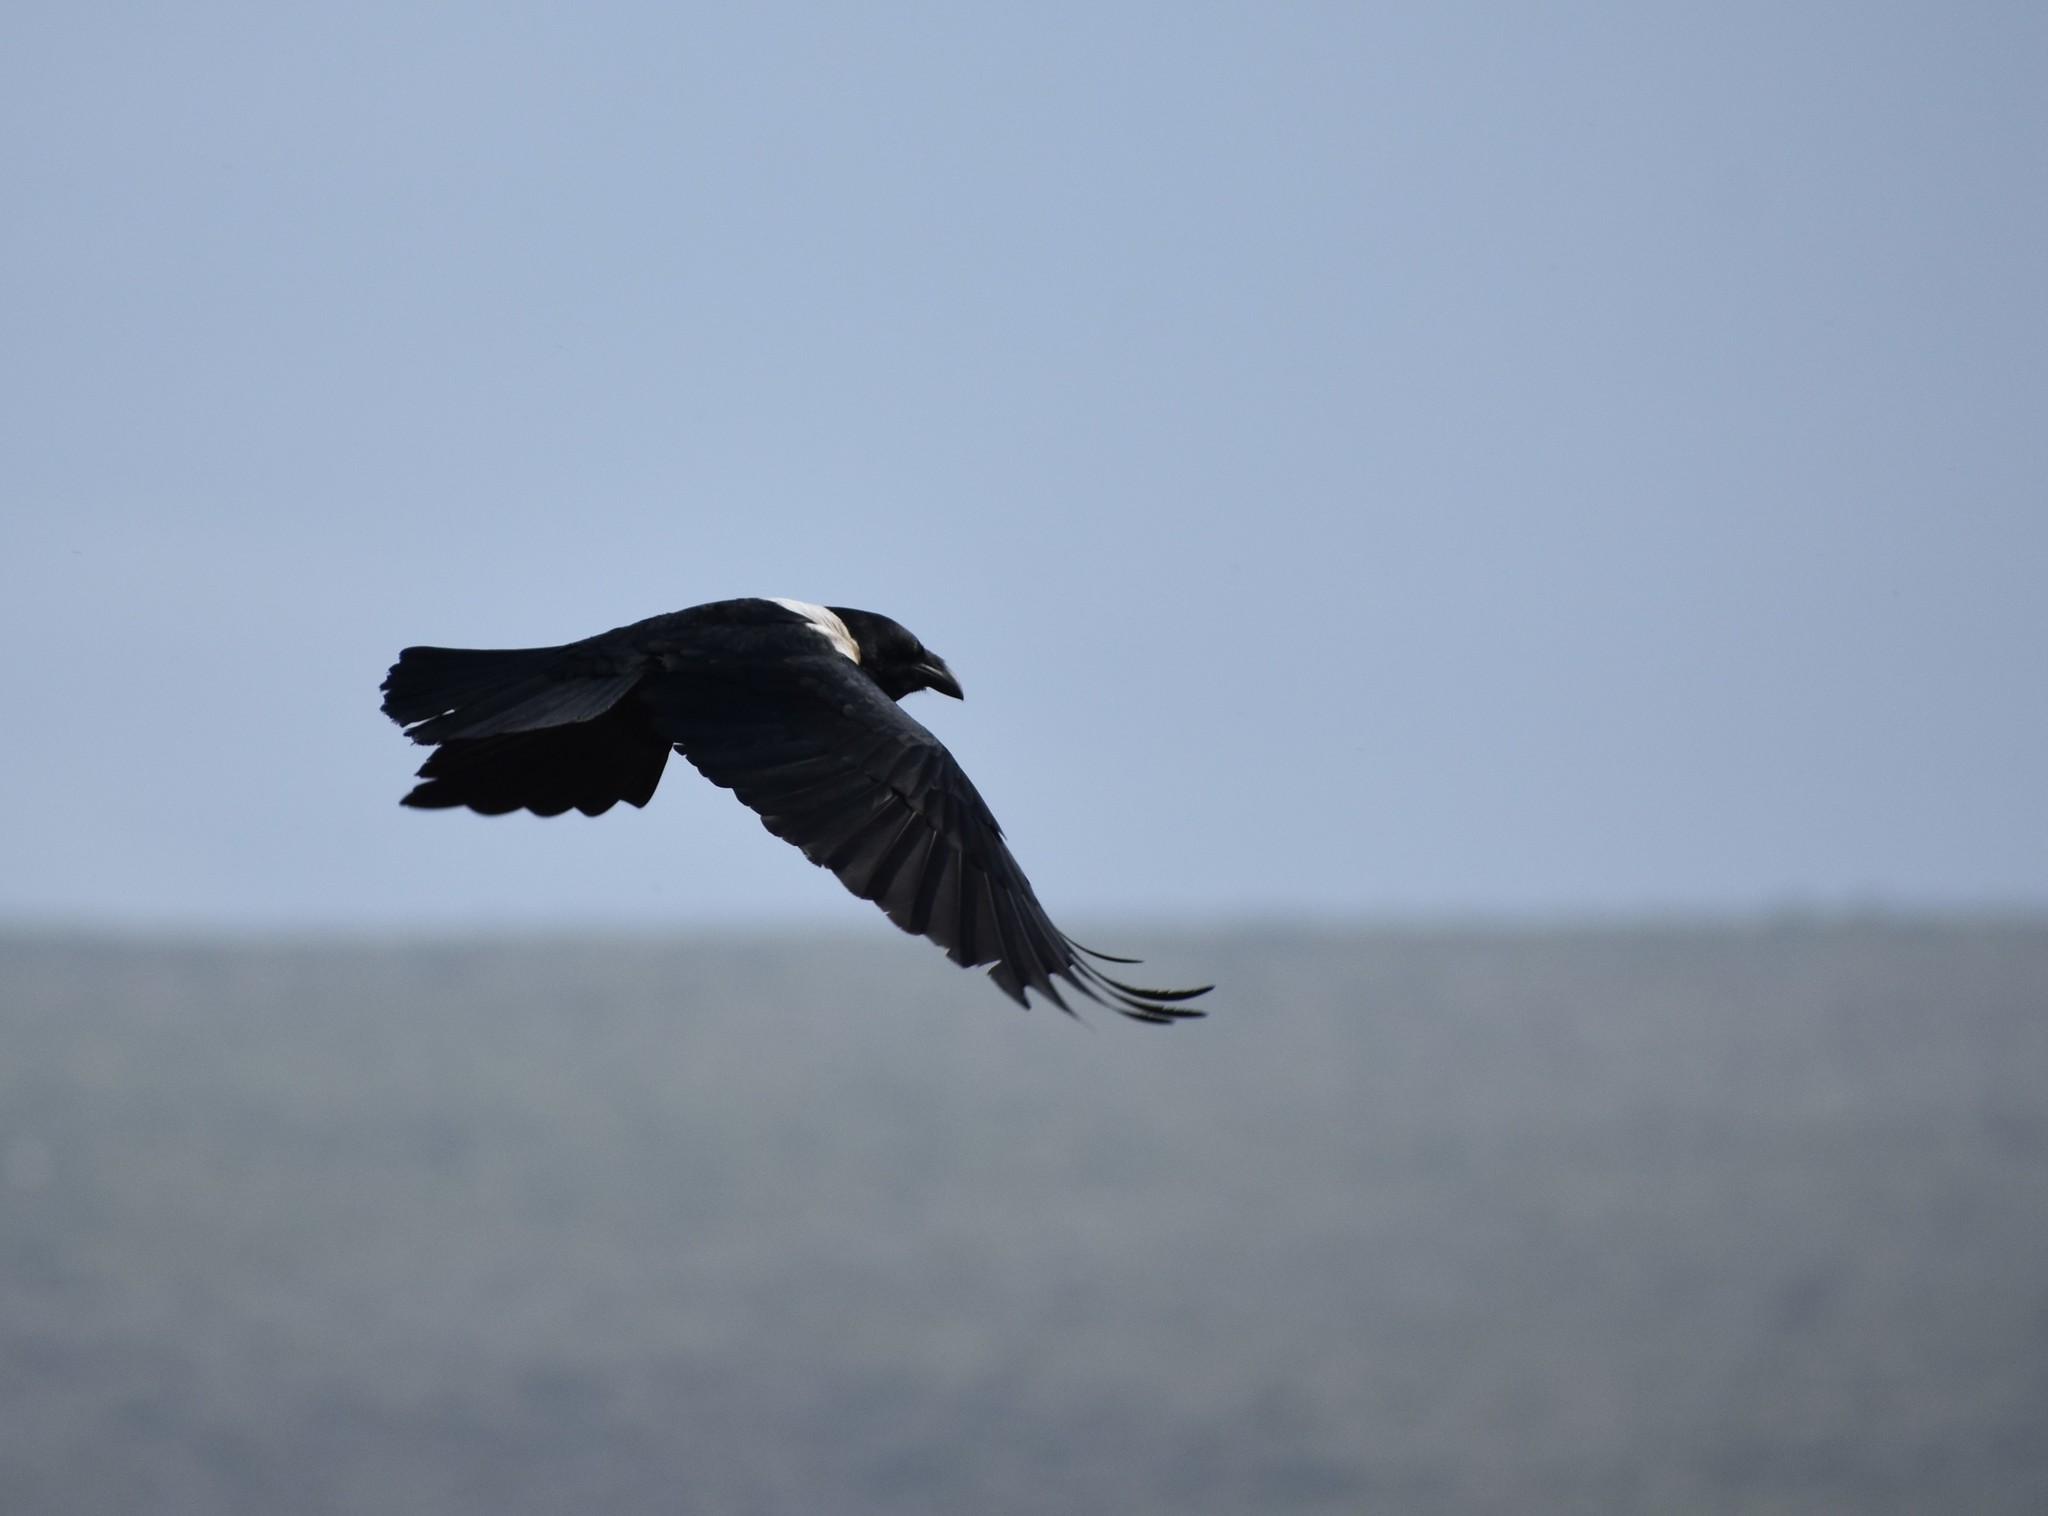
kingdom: Animalia
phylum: Chordata
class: Aves
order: Passeriformes
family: Corvidae
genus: Corvus
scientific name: Corvus albus
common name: Pied crow
